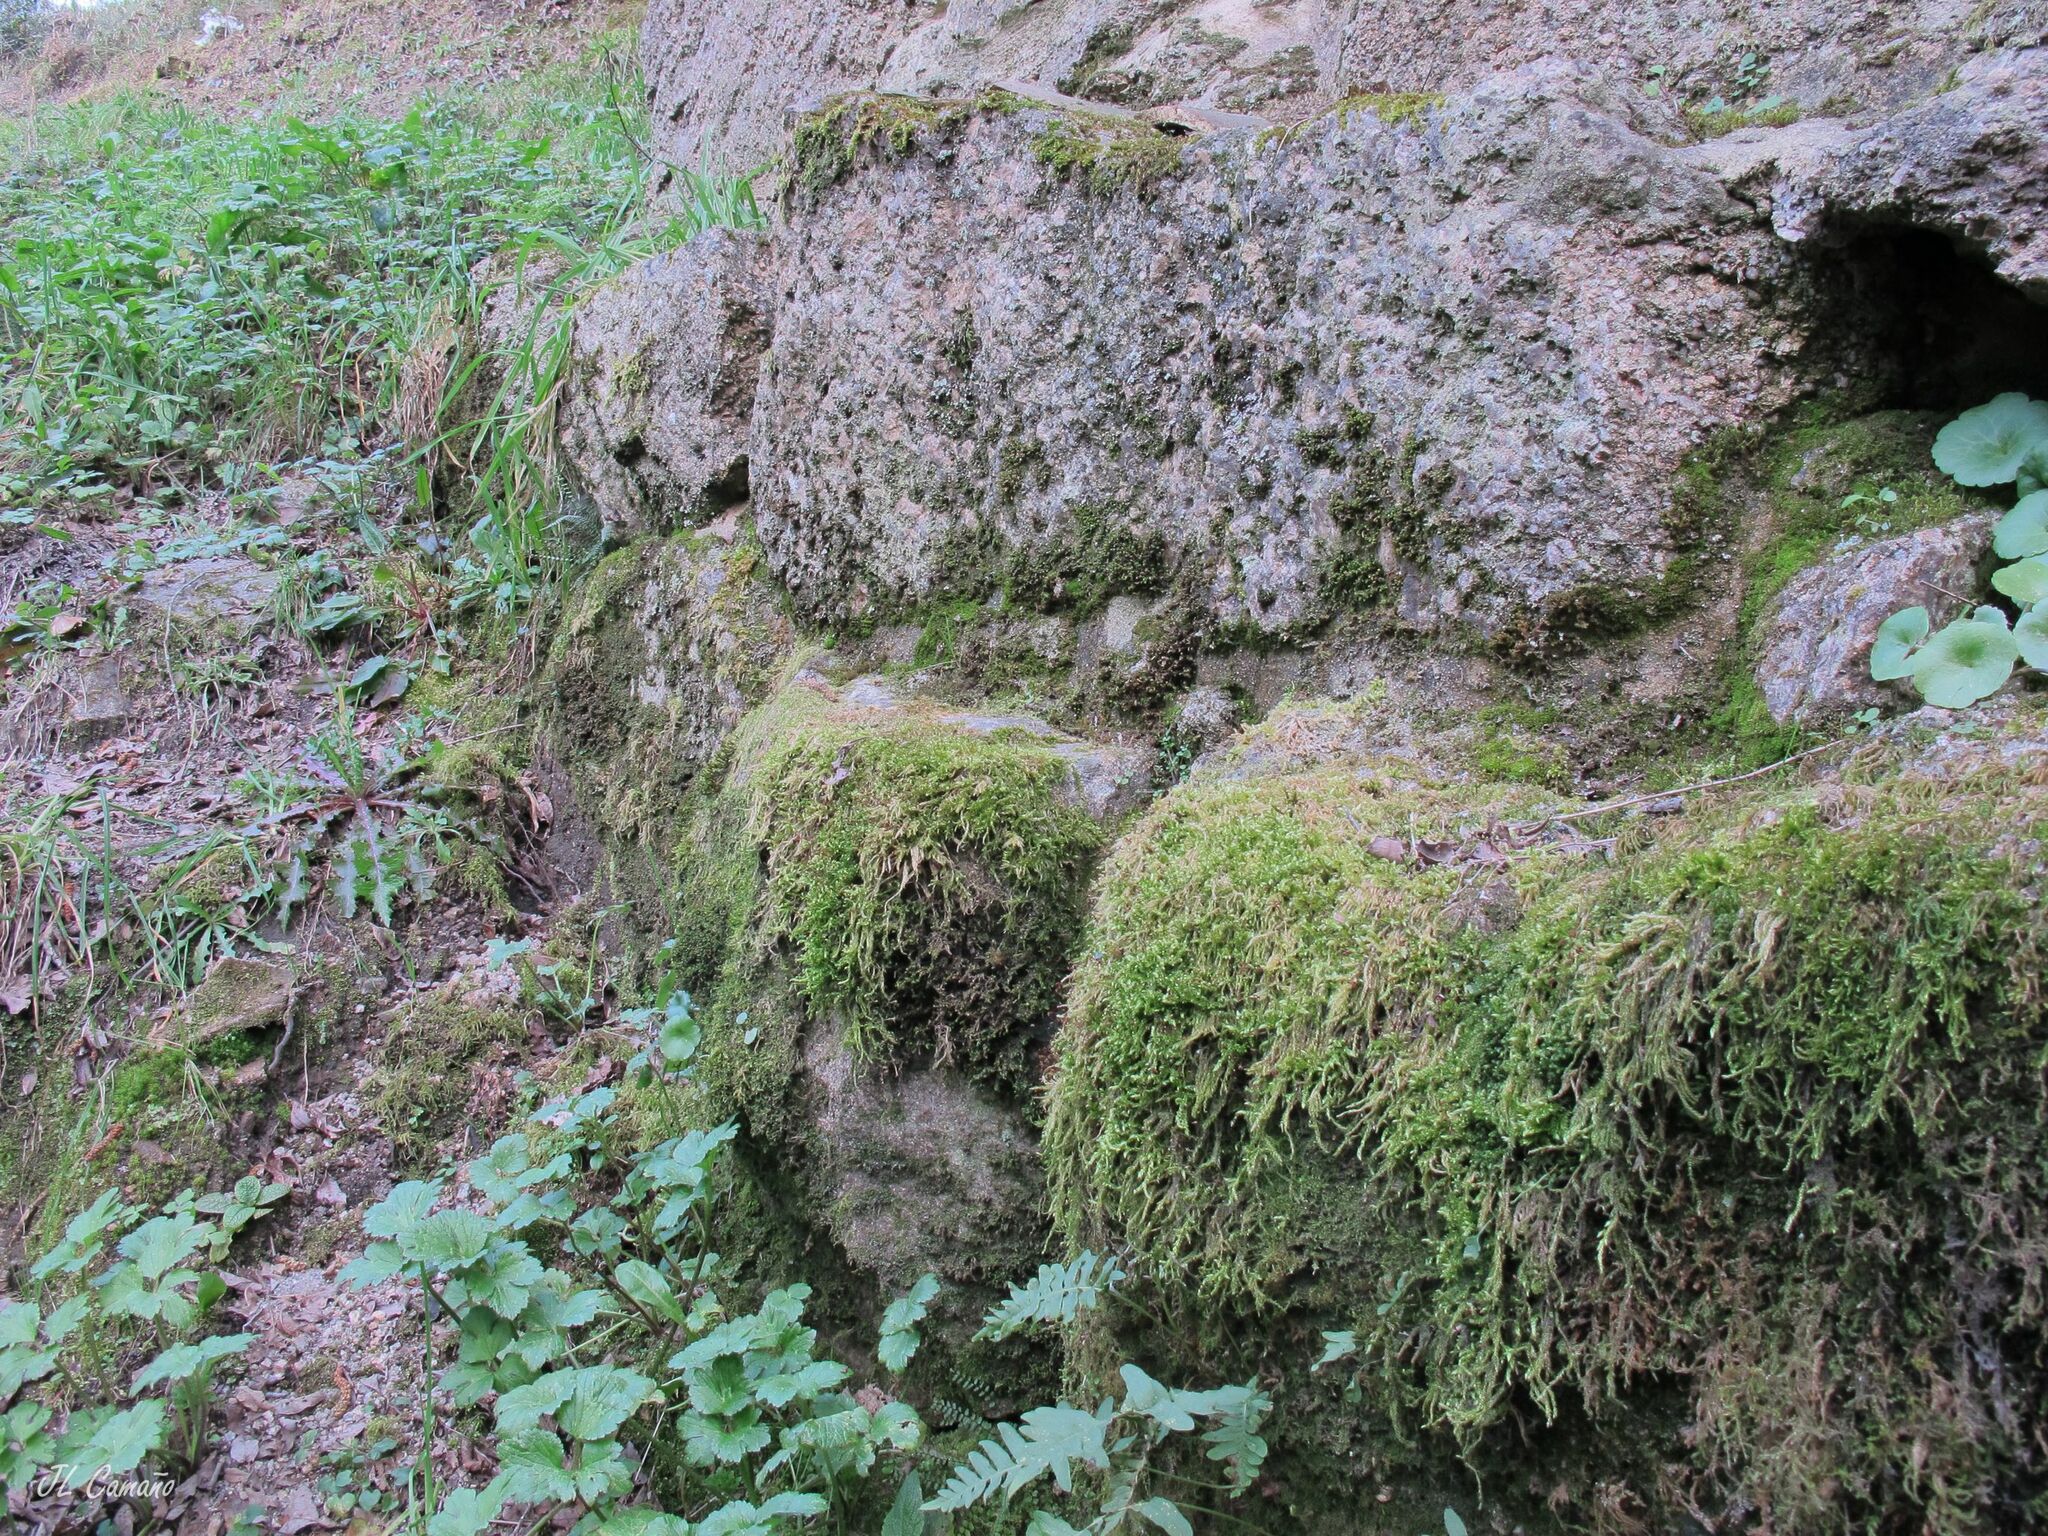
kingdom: Plantae
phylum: Bryophyta
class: Bryopsida
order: Hypnales
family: Brachytheciaceae
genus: Brachythecium
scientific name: Brachythecium rutabulum
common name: Rough-stalked feather-moss
